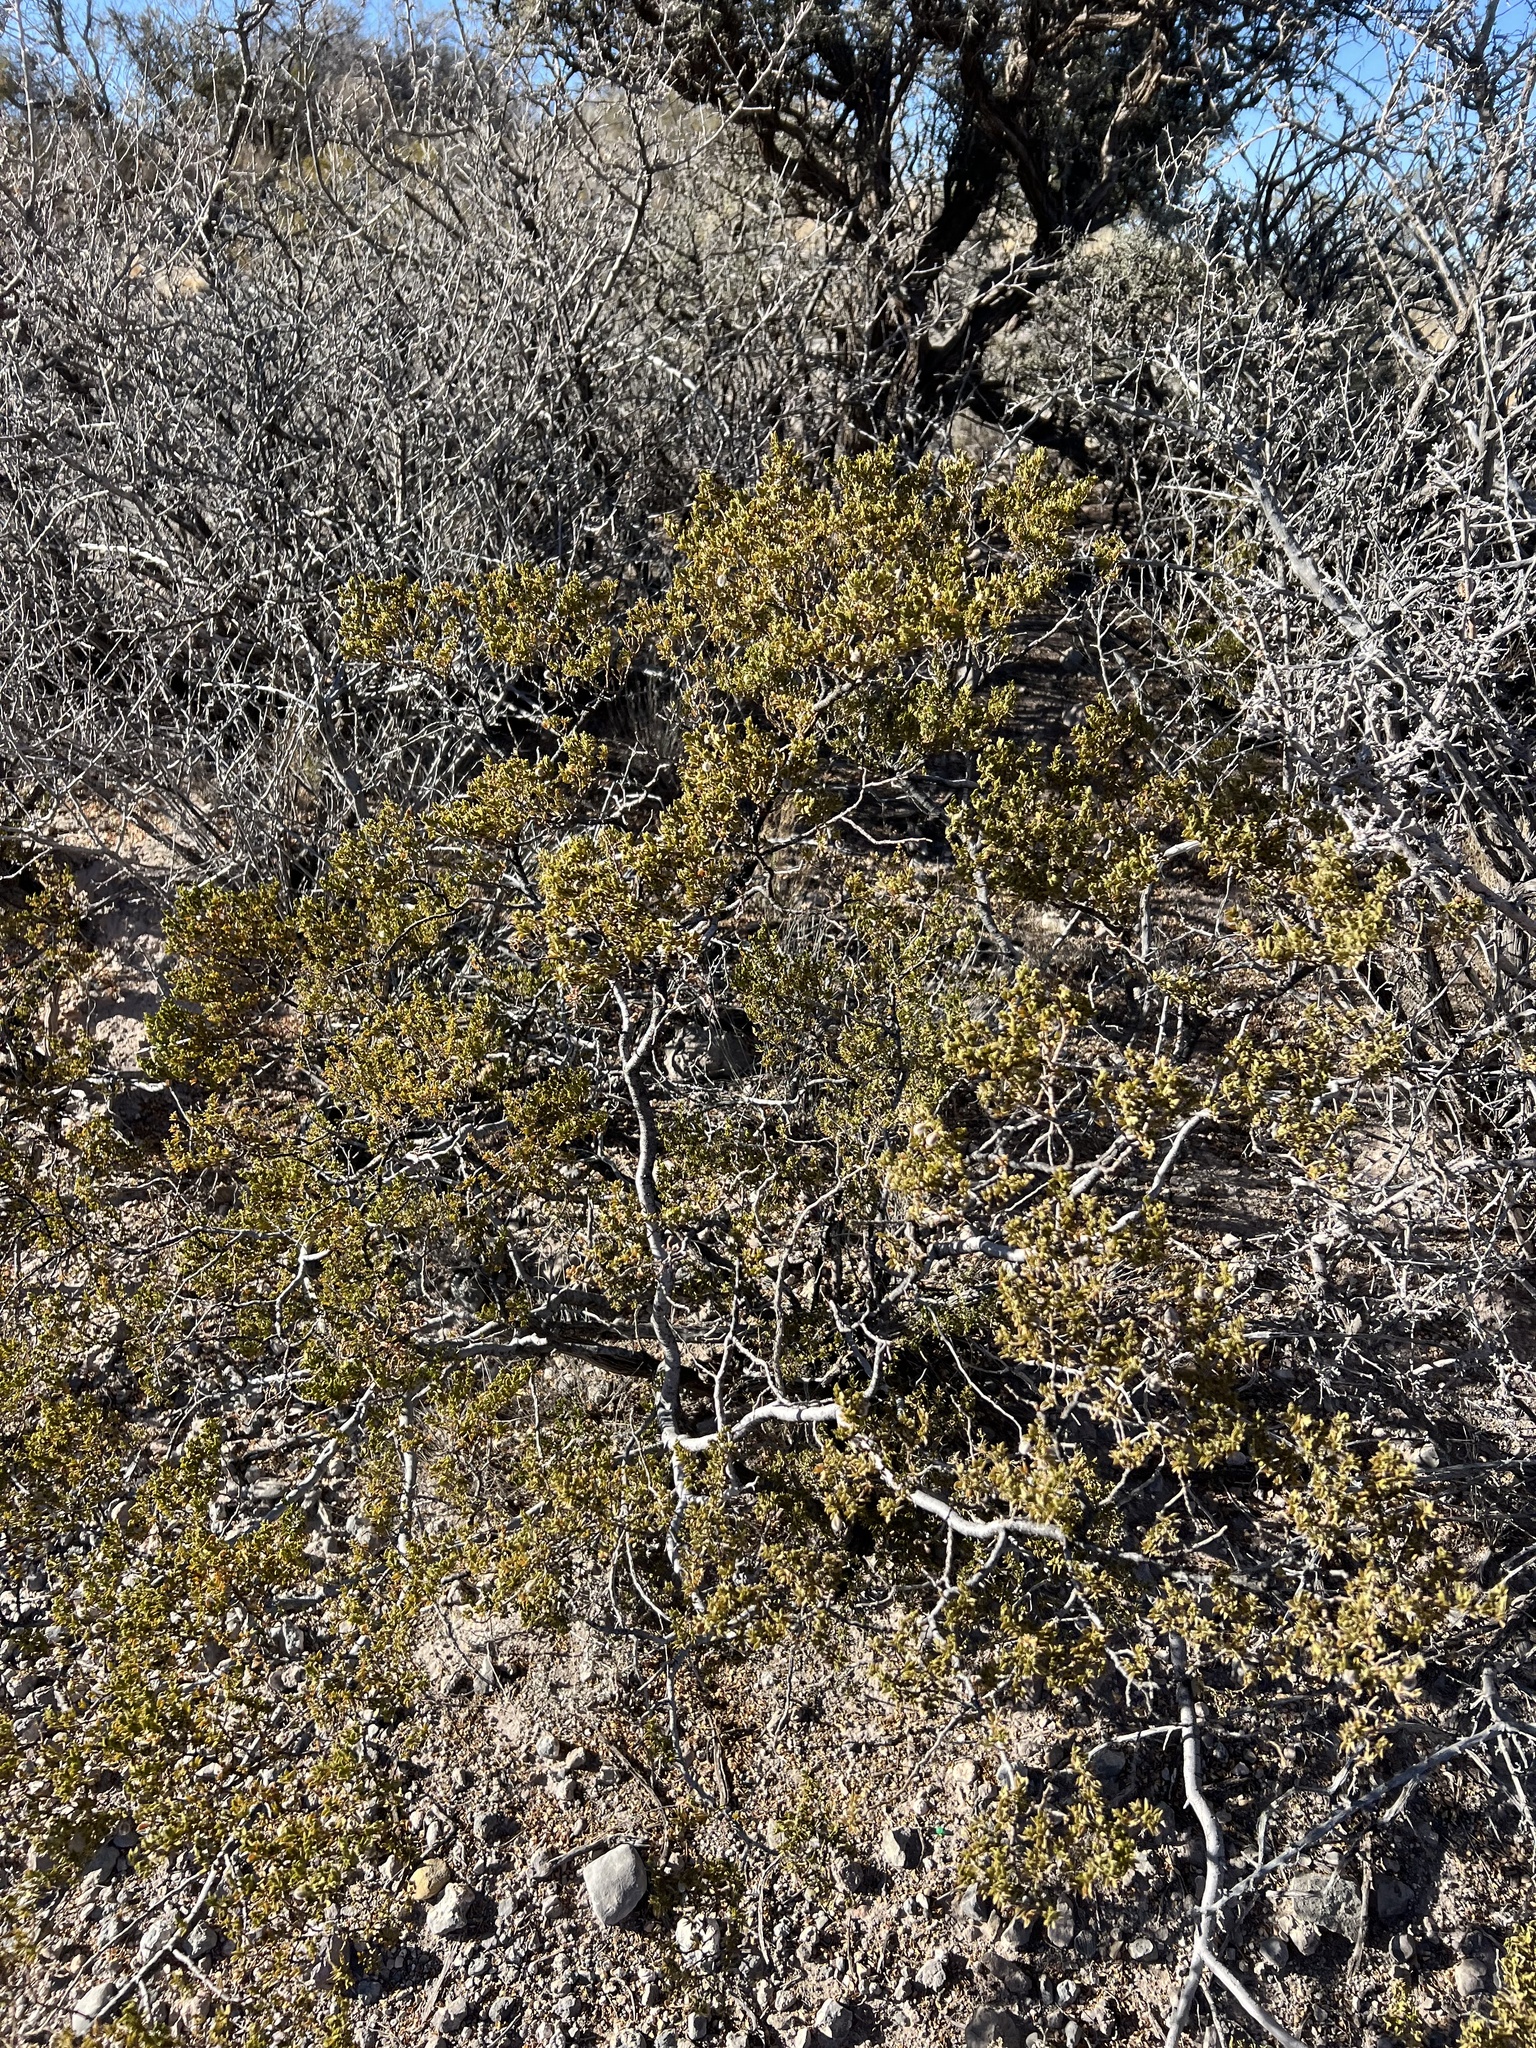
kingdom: Plantae
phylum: Tracheophyta
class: Magnoliopsida
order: Zygophyllales
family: Zygophyllaceae
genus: Larrea
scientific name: Larrea tridentata
